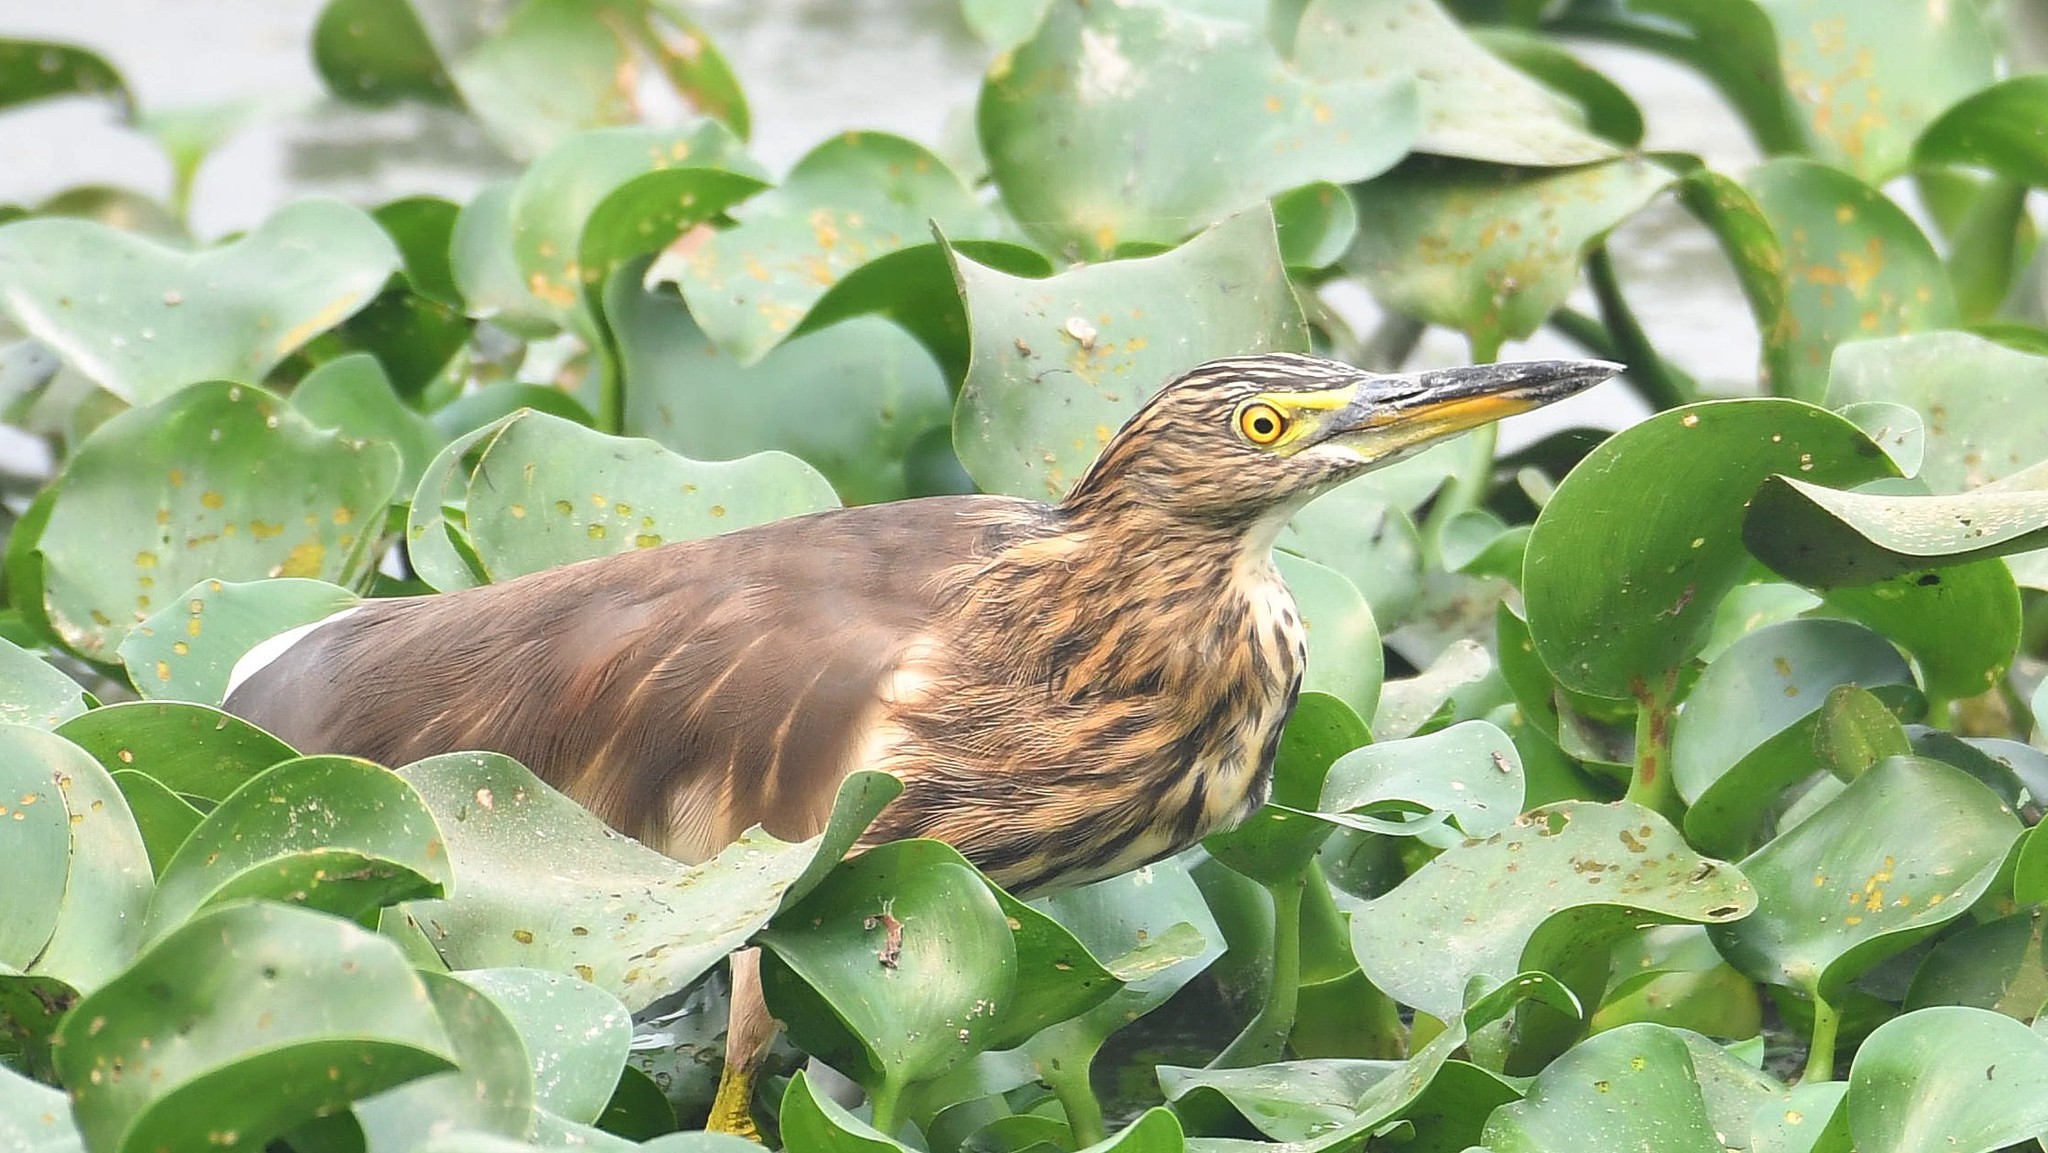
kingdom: Animalia
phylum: Chordata
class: Aves
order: Pelecaniformes
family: Ardeidae
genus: Ardeola
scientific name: Ardeola grayii
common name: Indian pond heron
